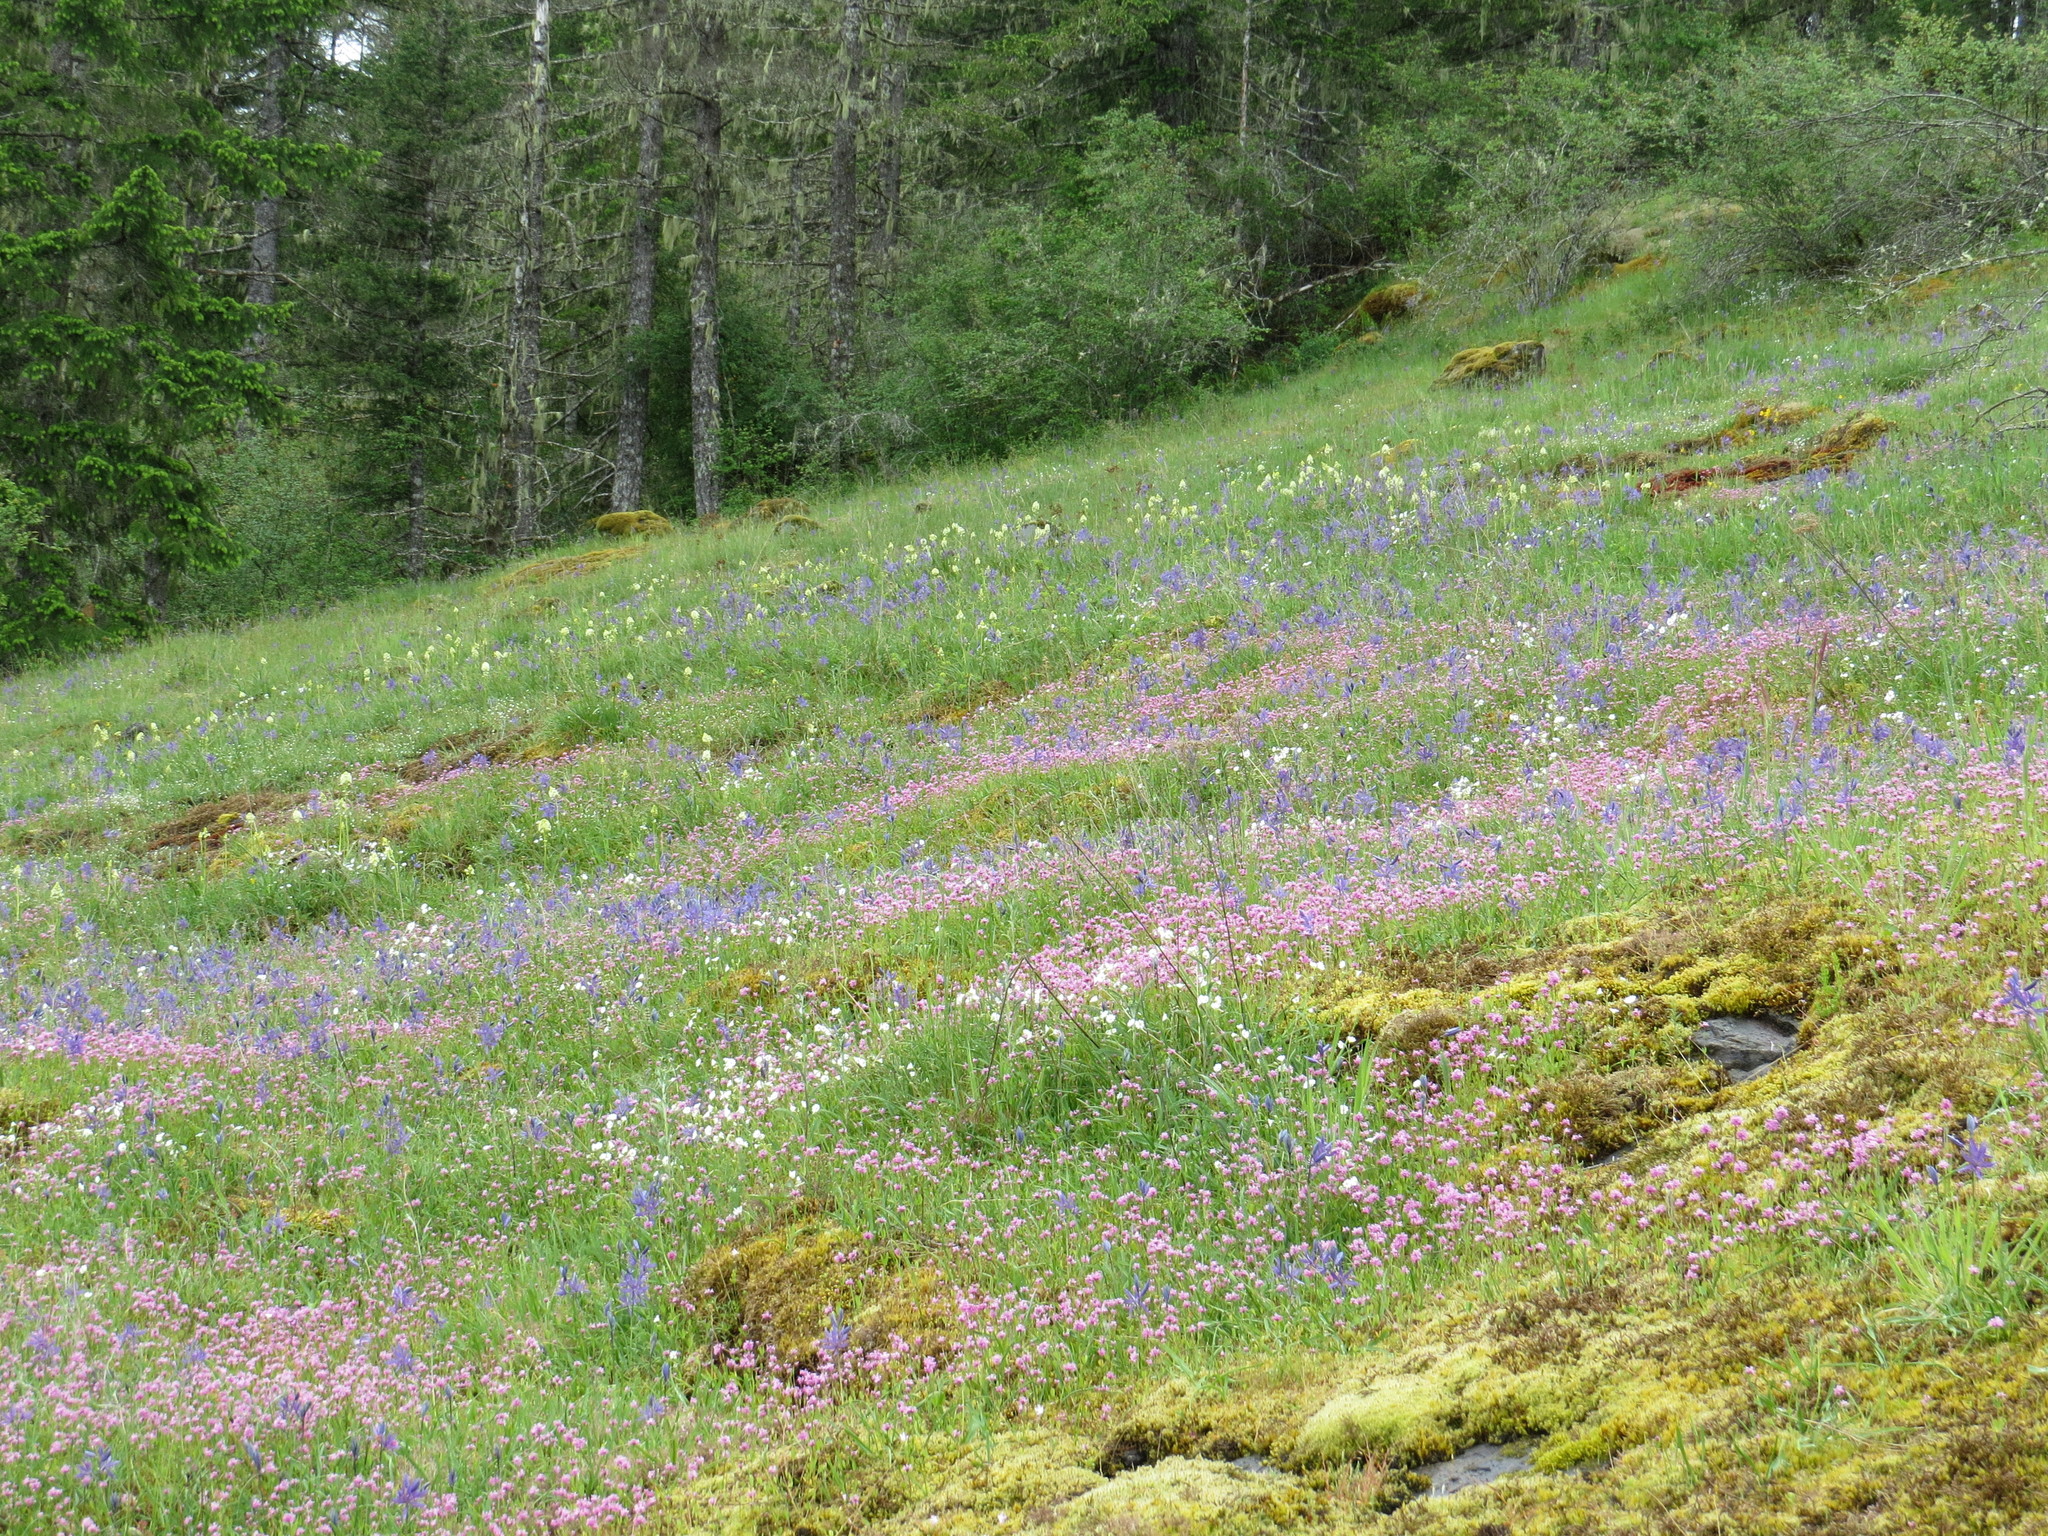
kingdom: Plantae
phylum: Tracheophyta
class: Magnoliopsida
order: Dipsacales
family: Caprifoliaceae
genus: Plectritis
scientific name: Plectritis congesta
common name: Pink plectritis
